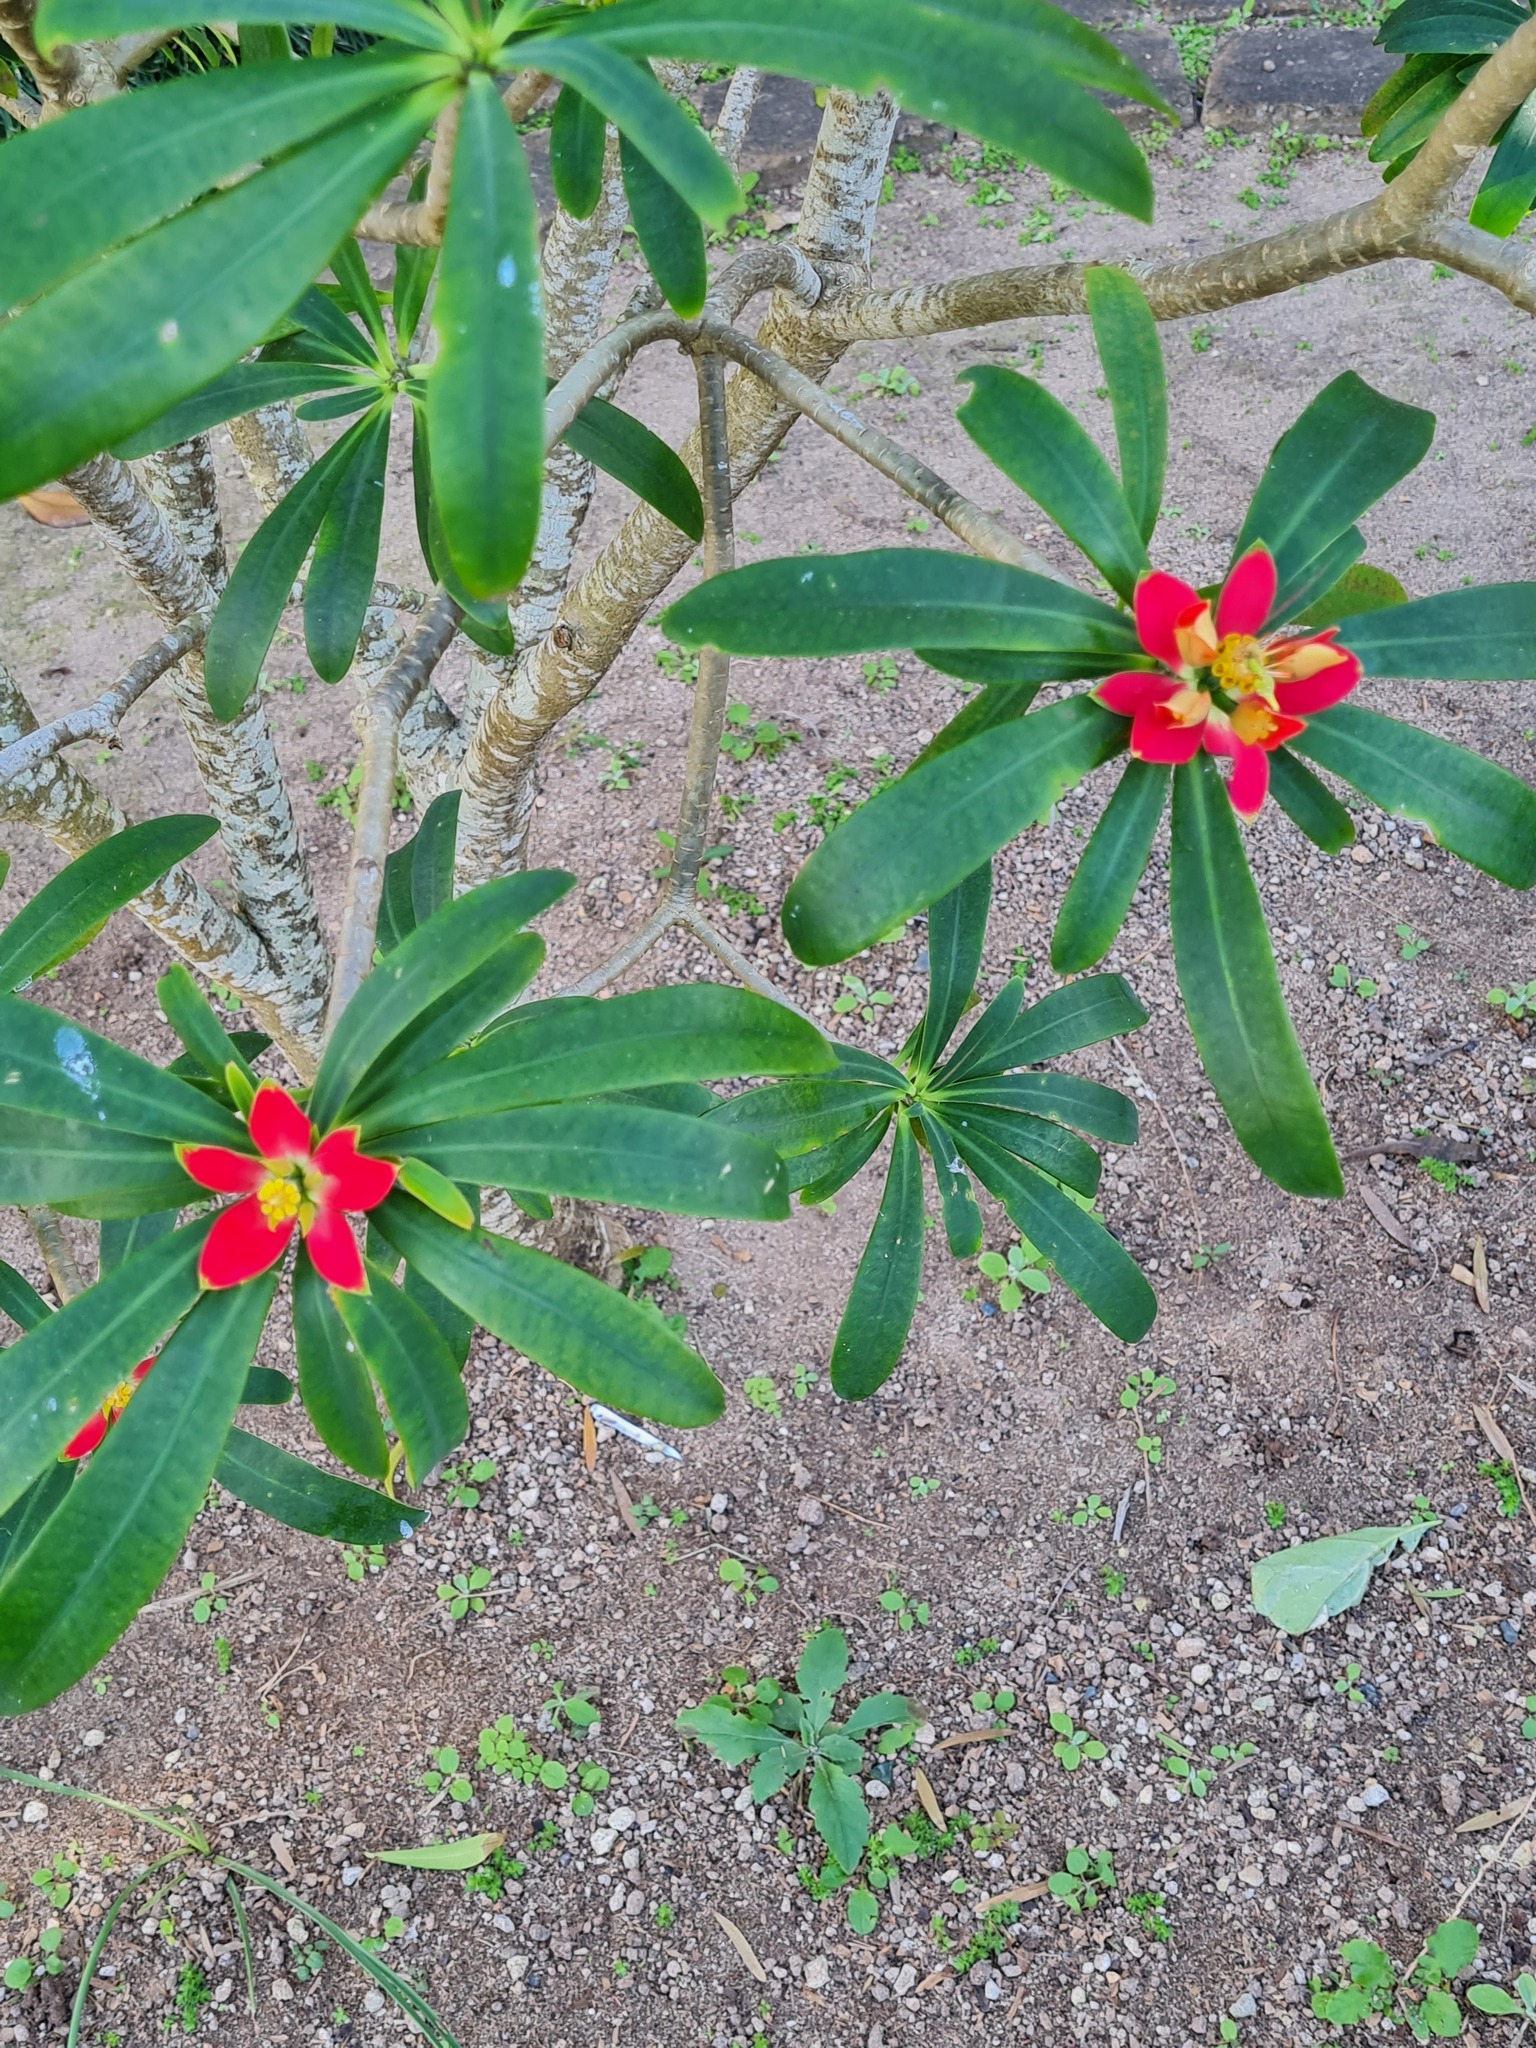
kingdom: Plantae
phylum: Tracheophyta
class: Magnoliopsida
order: Malpighiales
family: Euphorbiaceae
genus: Euphorbia
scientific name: Euphorbia punicea
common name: Vegetable-leather
